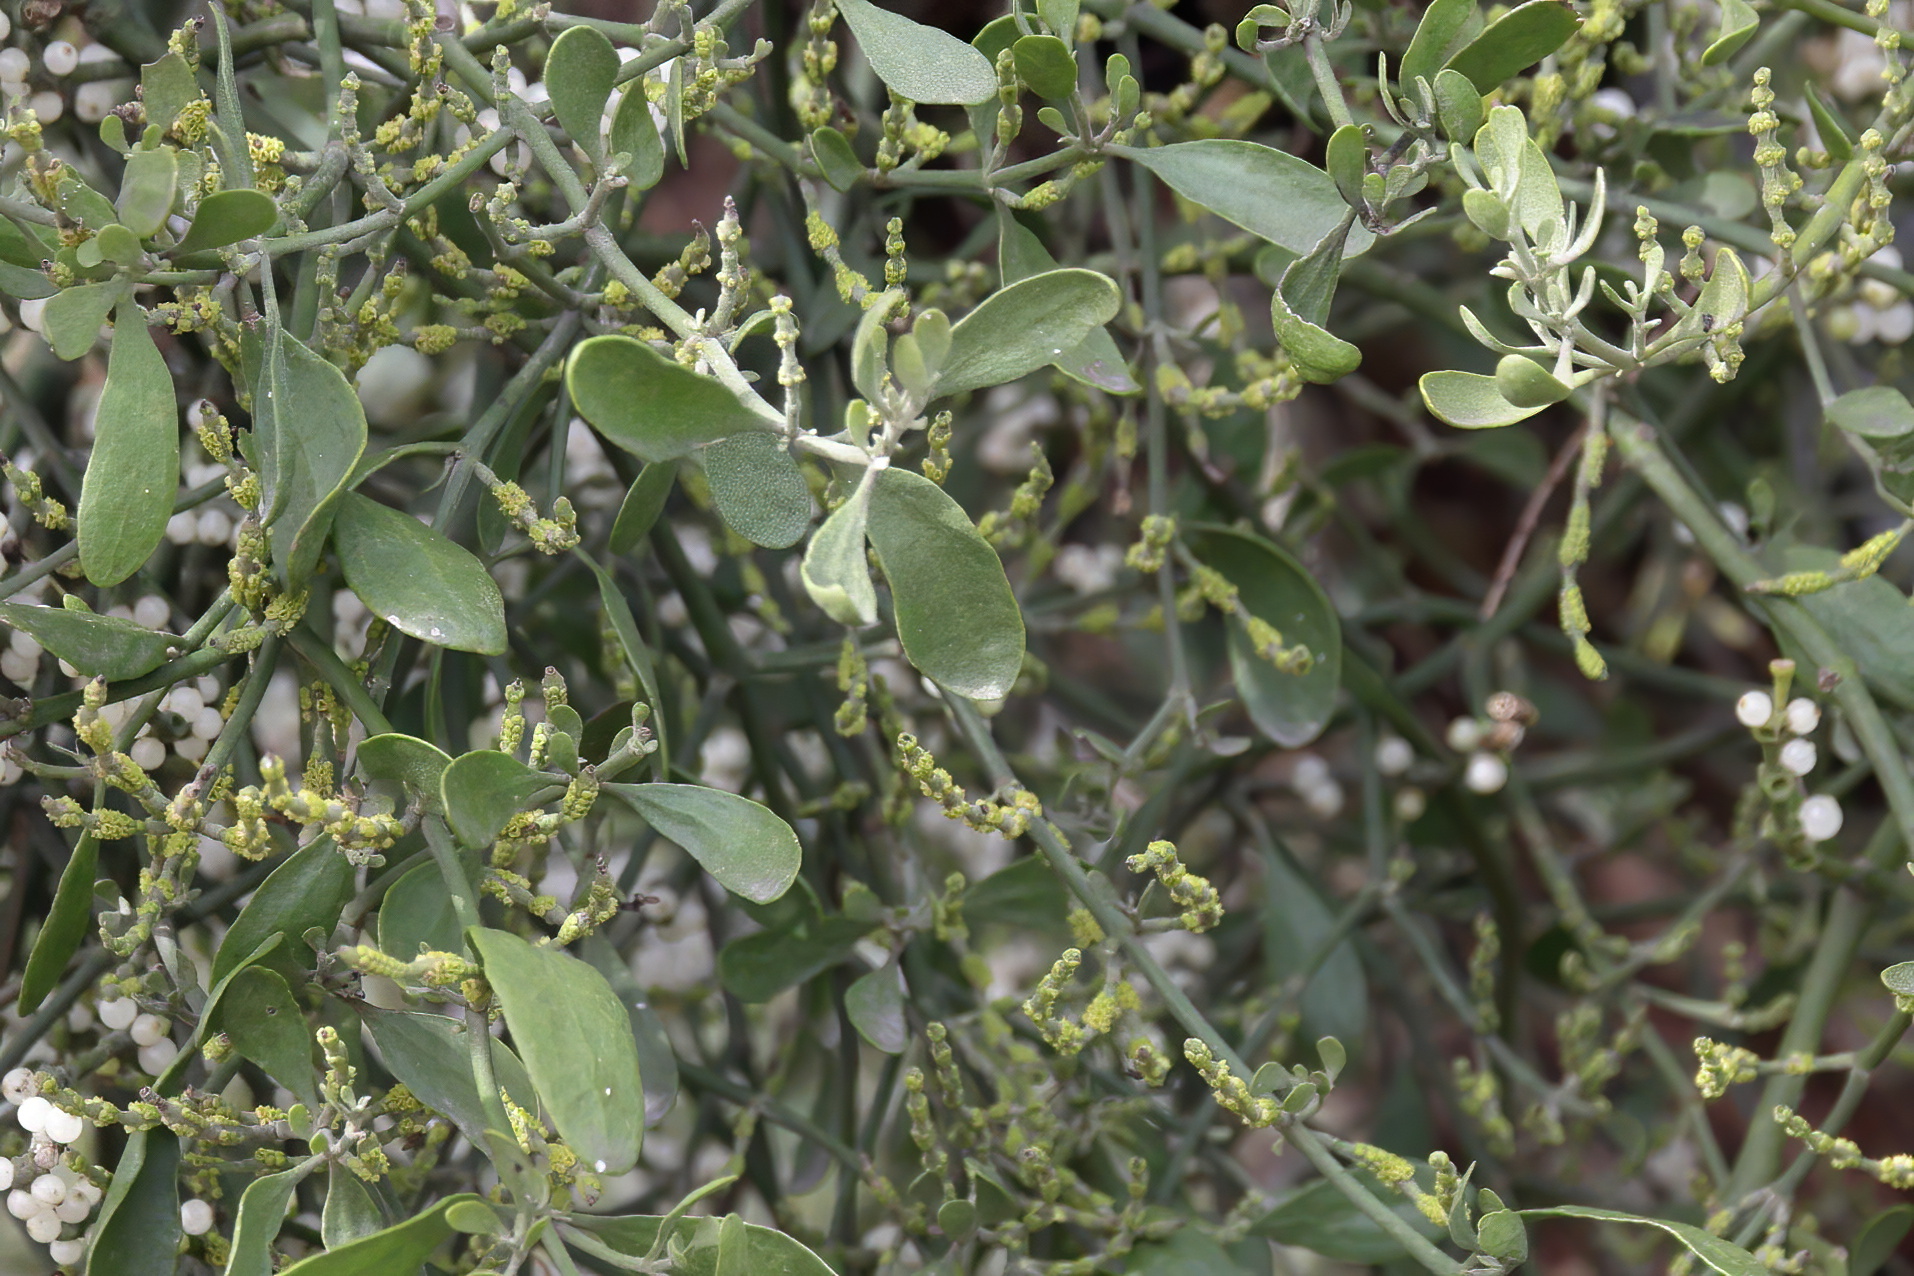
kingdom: Plantae
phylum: Tracheophyta
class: Magnoliopsida
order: Santalales
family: Viscaceae
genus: Phoradendron
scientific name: Phoradendron leucarpum
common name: Pacific mistletoe
